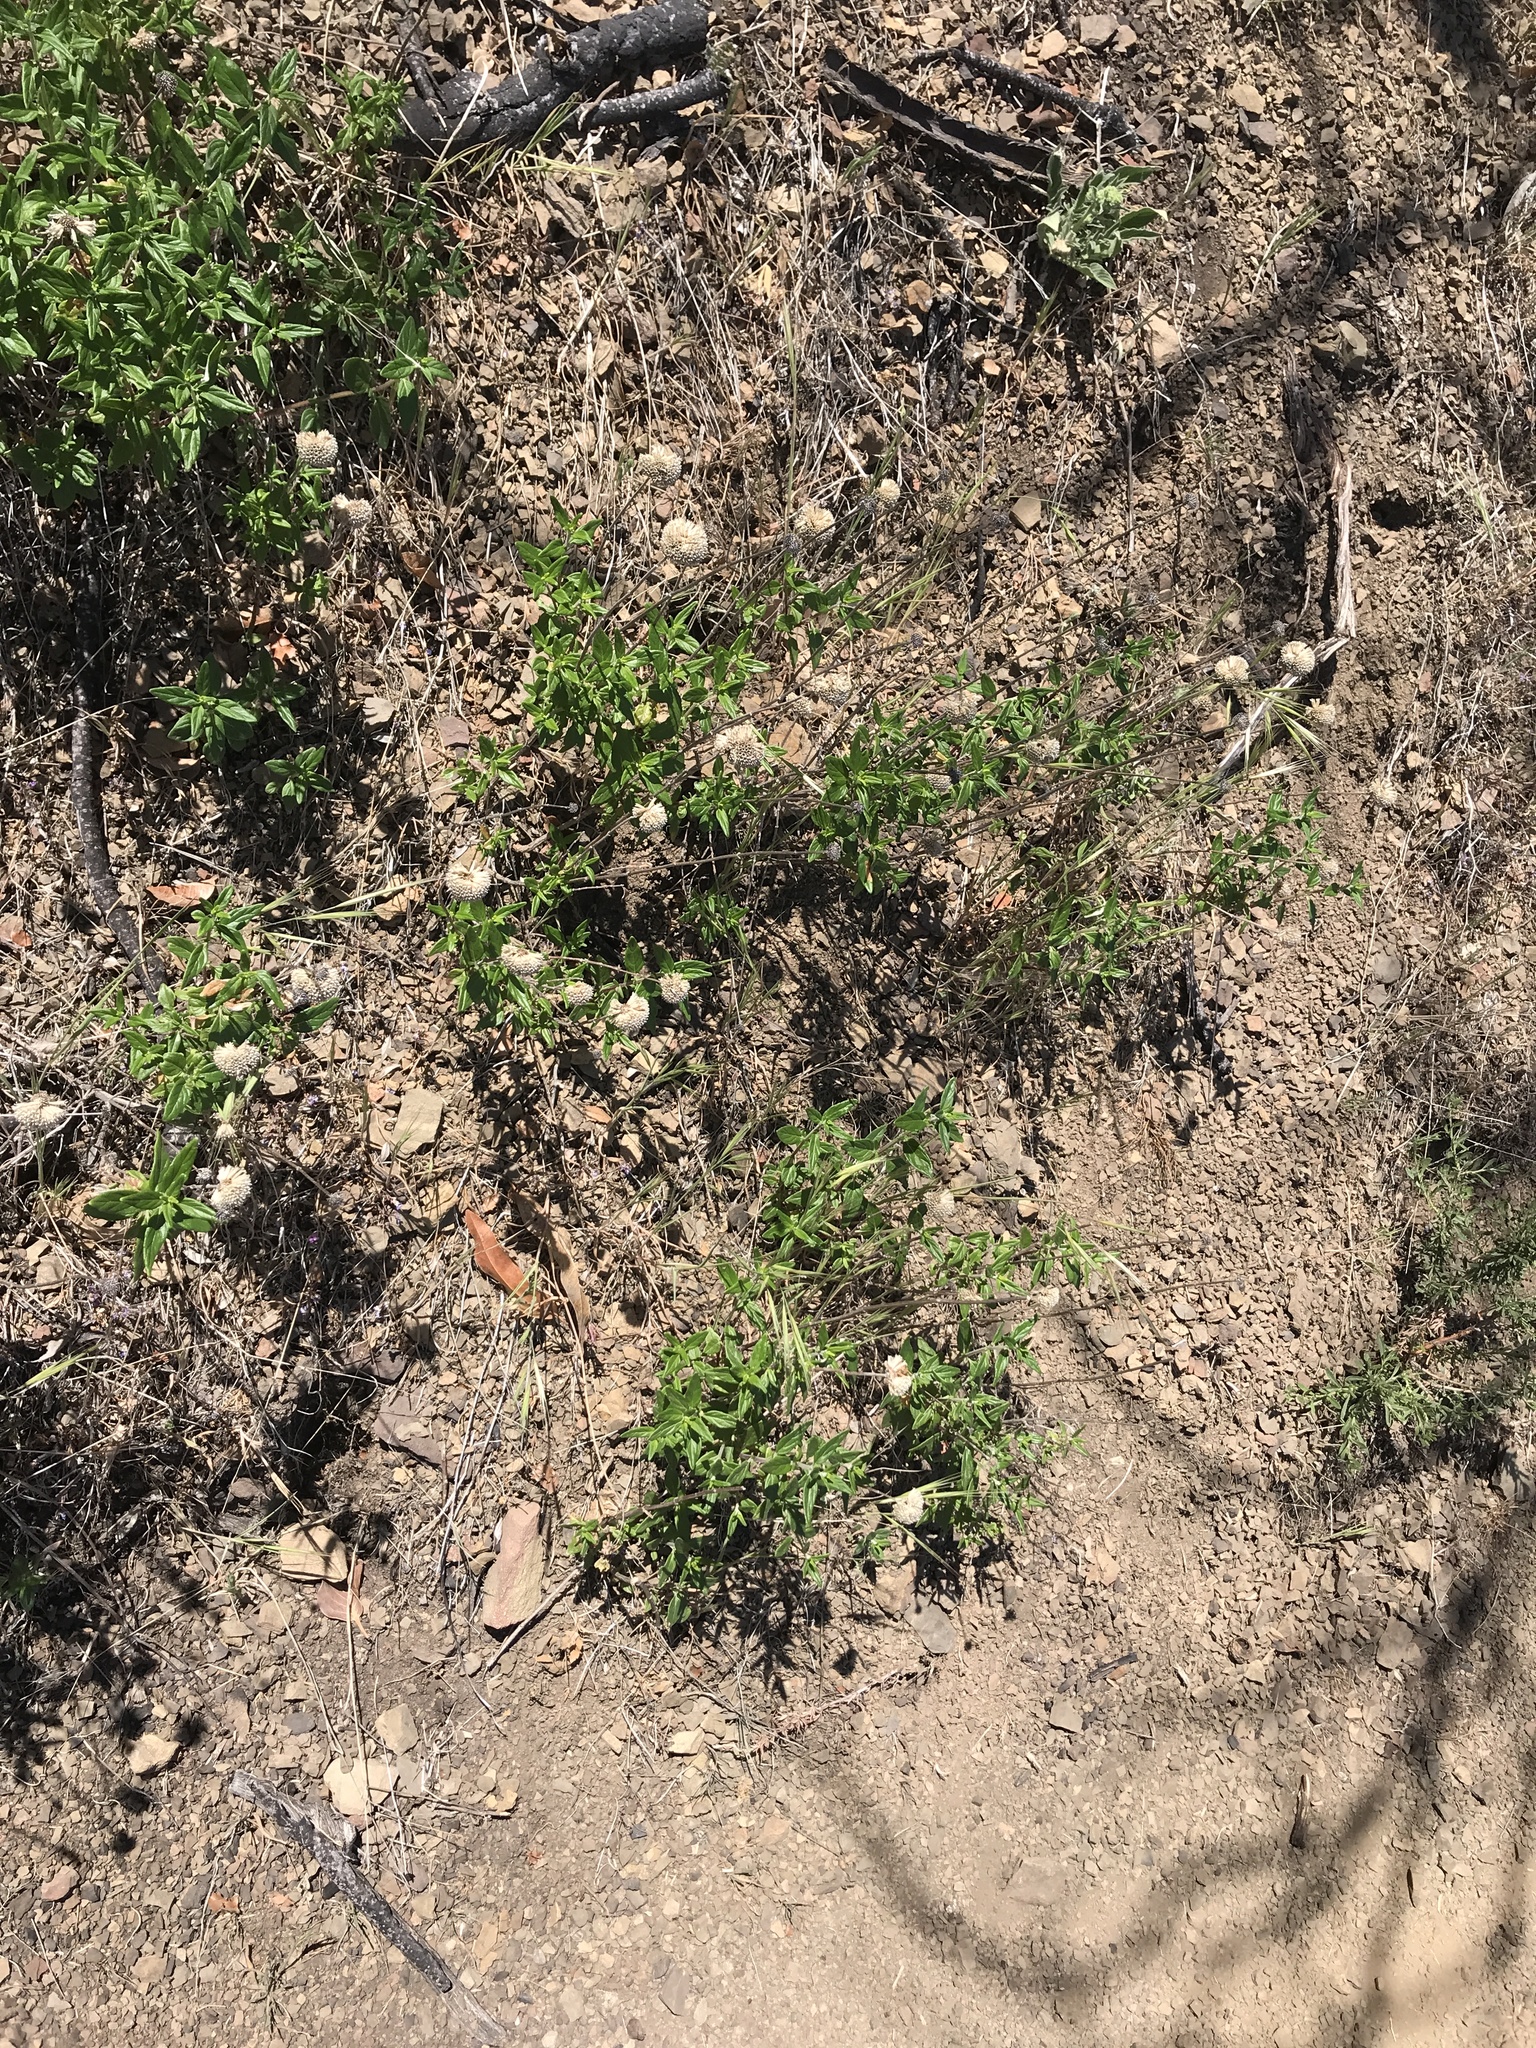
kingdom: Plantae
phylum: Tracheophyta
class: Magnoliopsida
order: Lamiales
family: Lamiaceae
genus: Monardella
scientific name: Monardella hypoleuca
